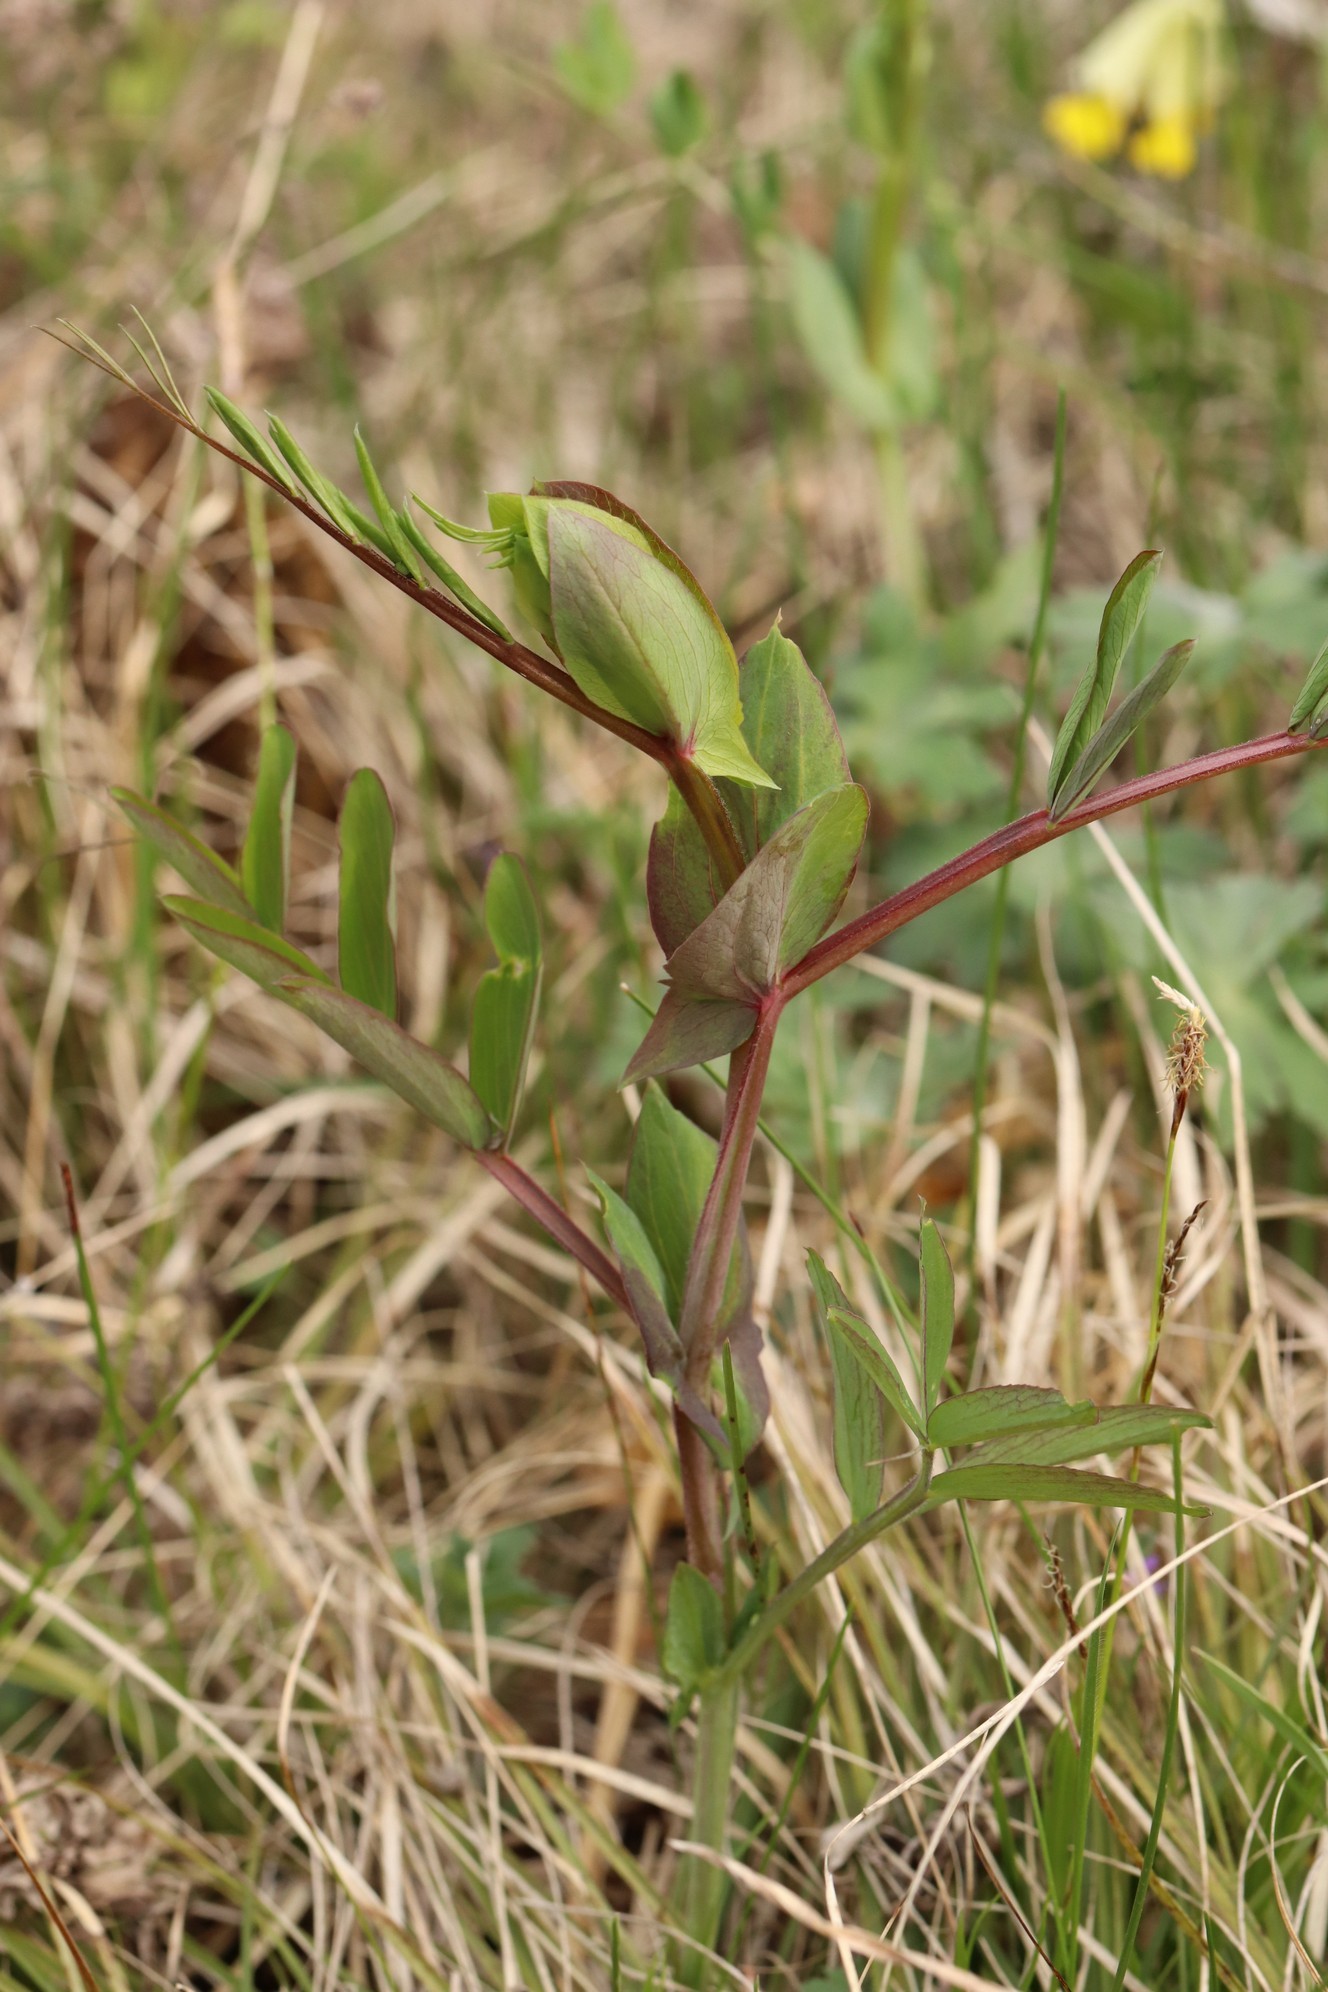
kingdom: Plantae
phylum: Tracheophyta
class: Magnoliopsida
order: Fabales
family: Fabaceae
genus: Lathyrus
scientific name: Lathyrus pisiformis
